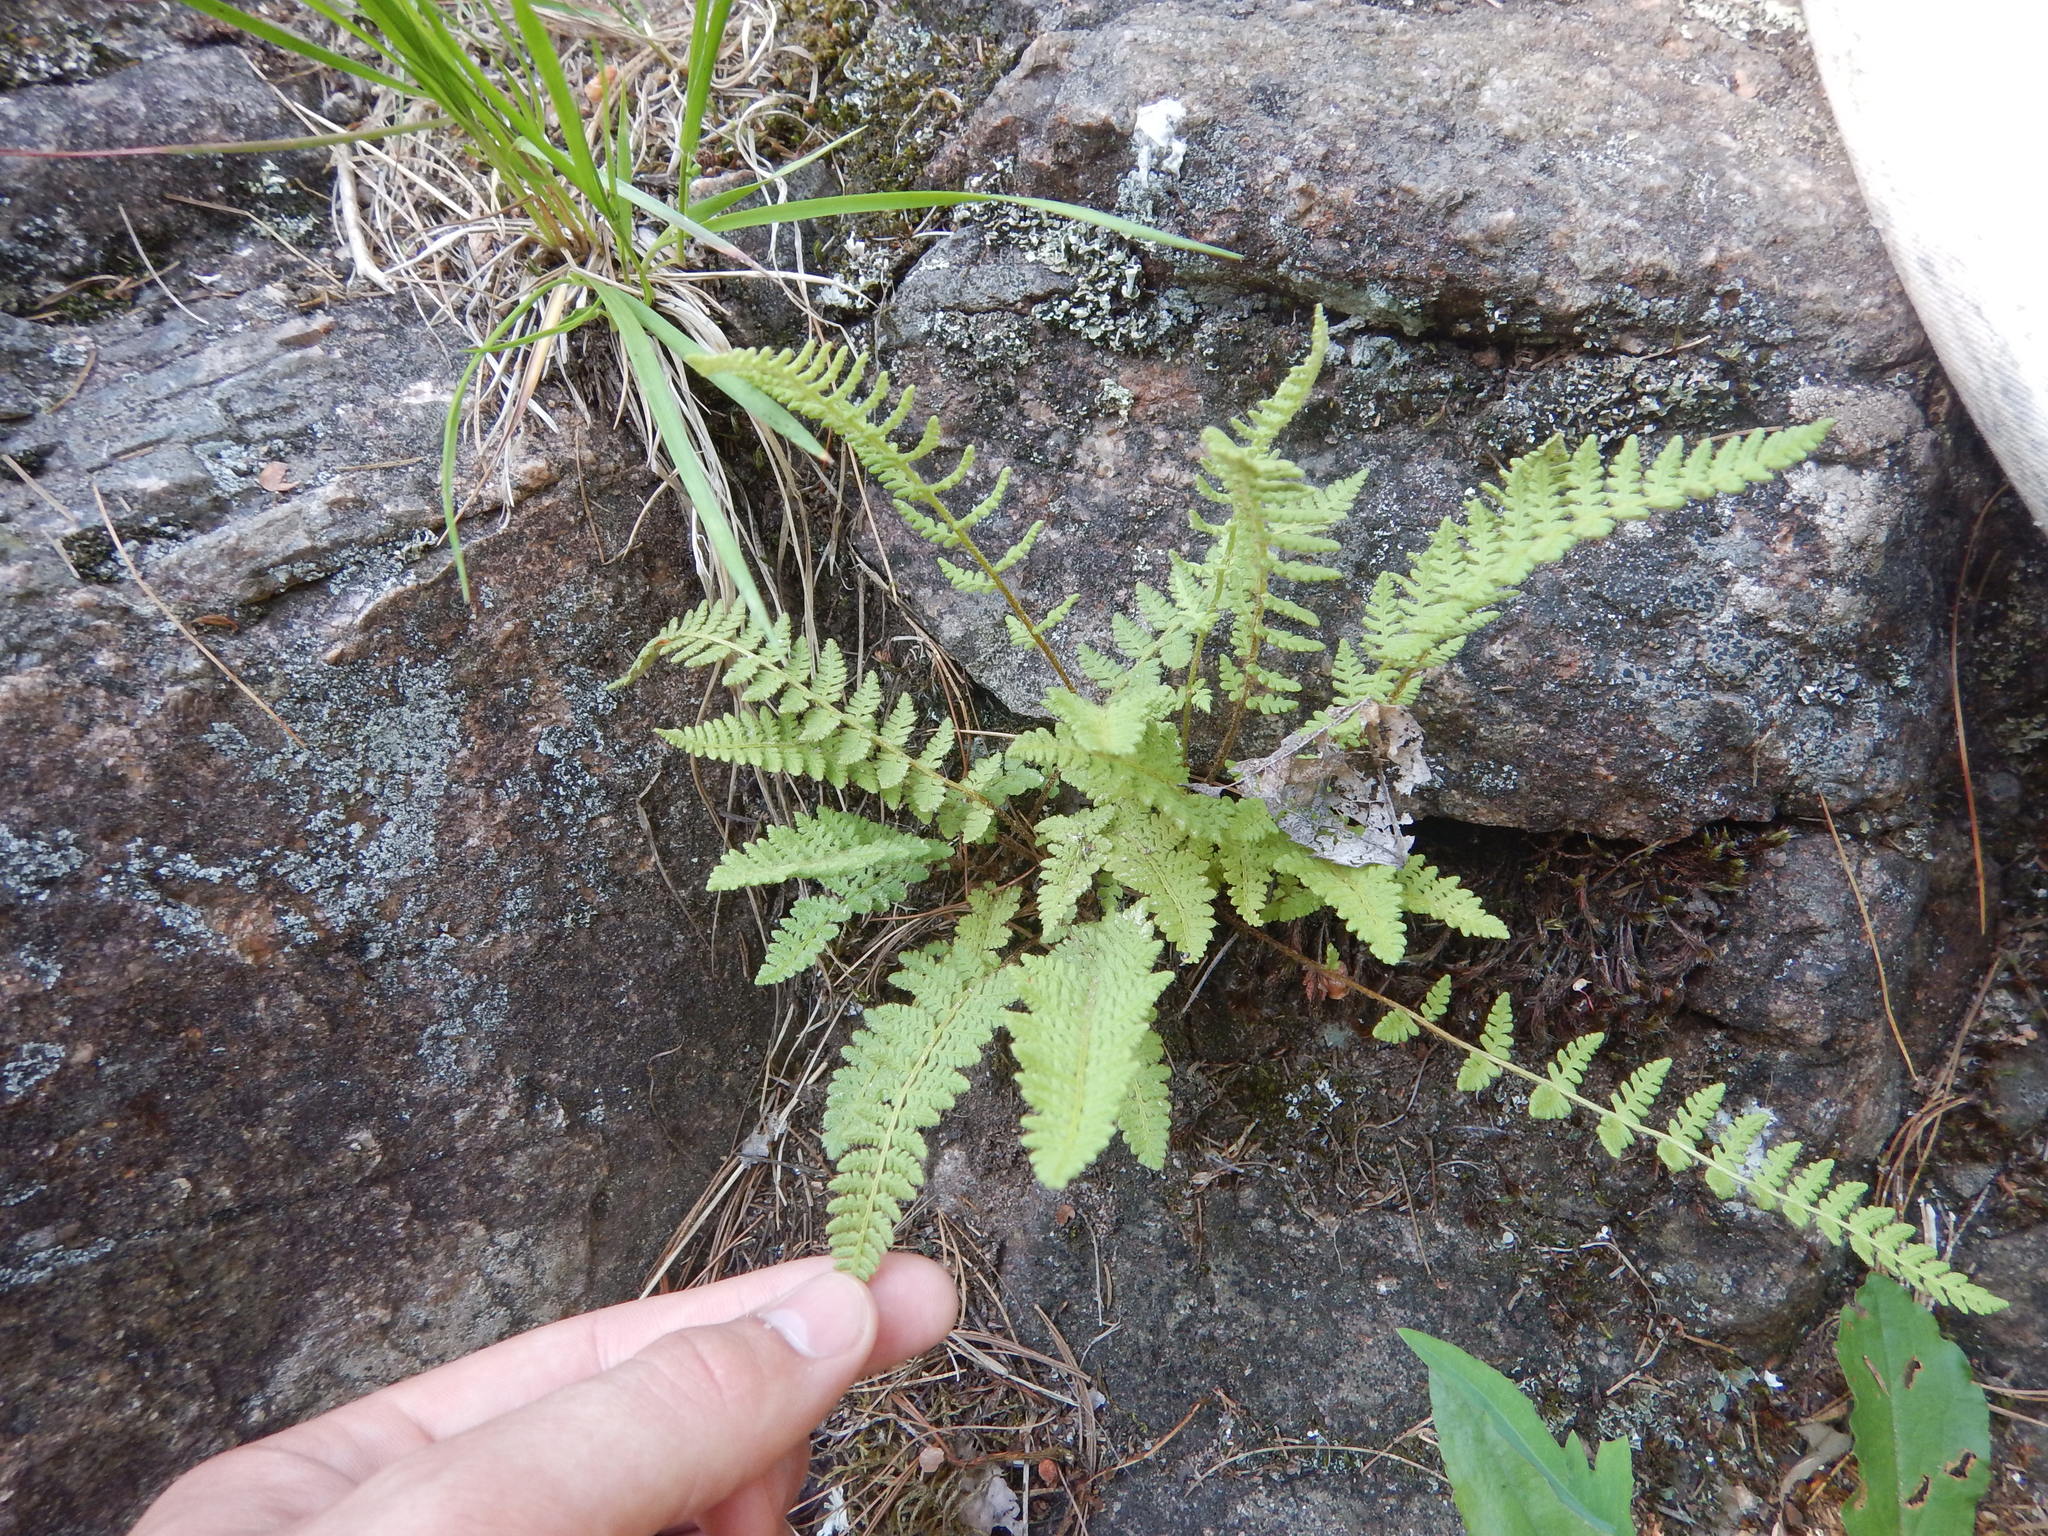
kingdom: Plantae
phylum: Tracheophyta
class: Polypodiopsida
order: Polypodiales
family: Woodsiaceae
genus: Woodsia
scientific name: Woodsia ilvensis
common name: Fragrant woodsia
